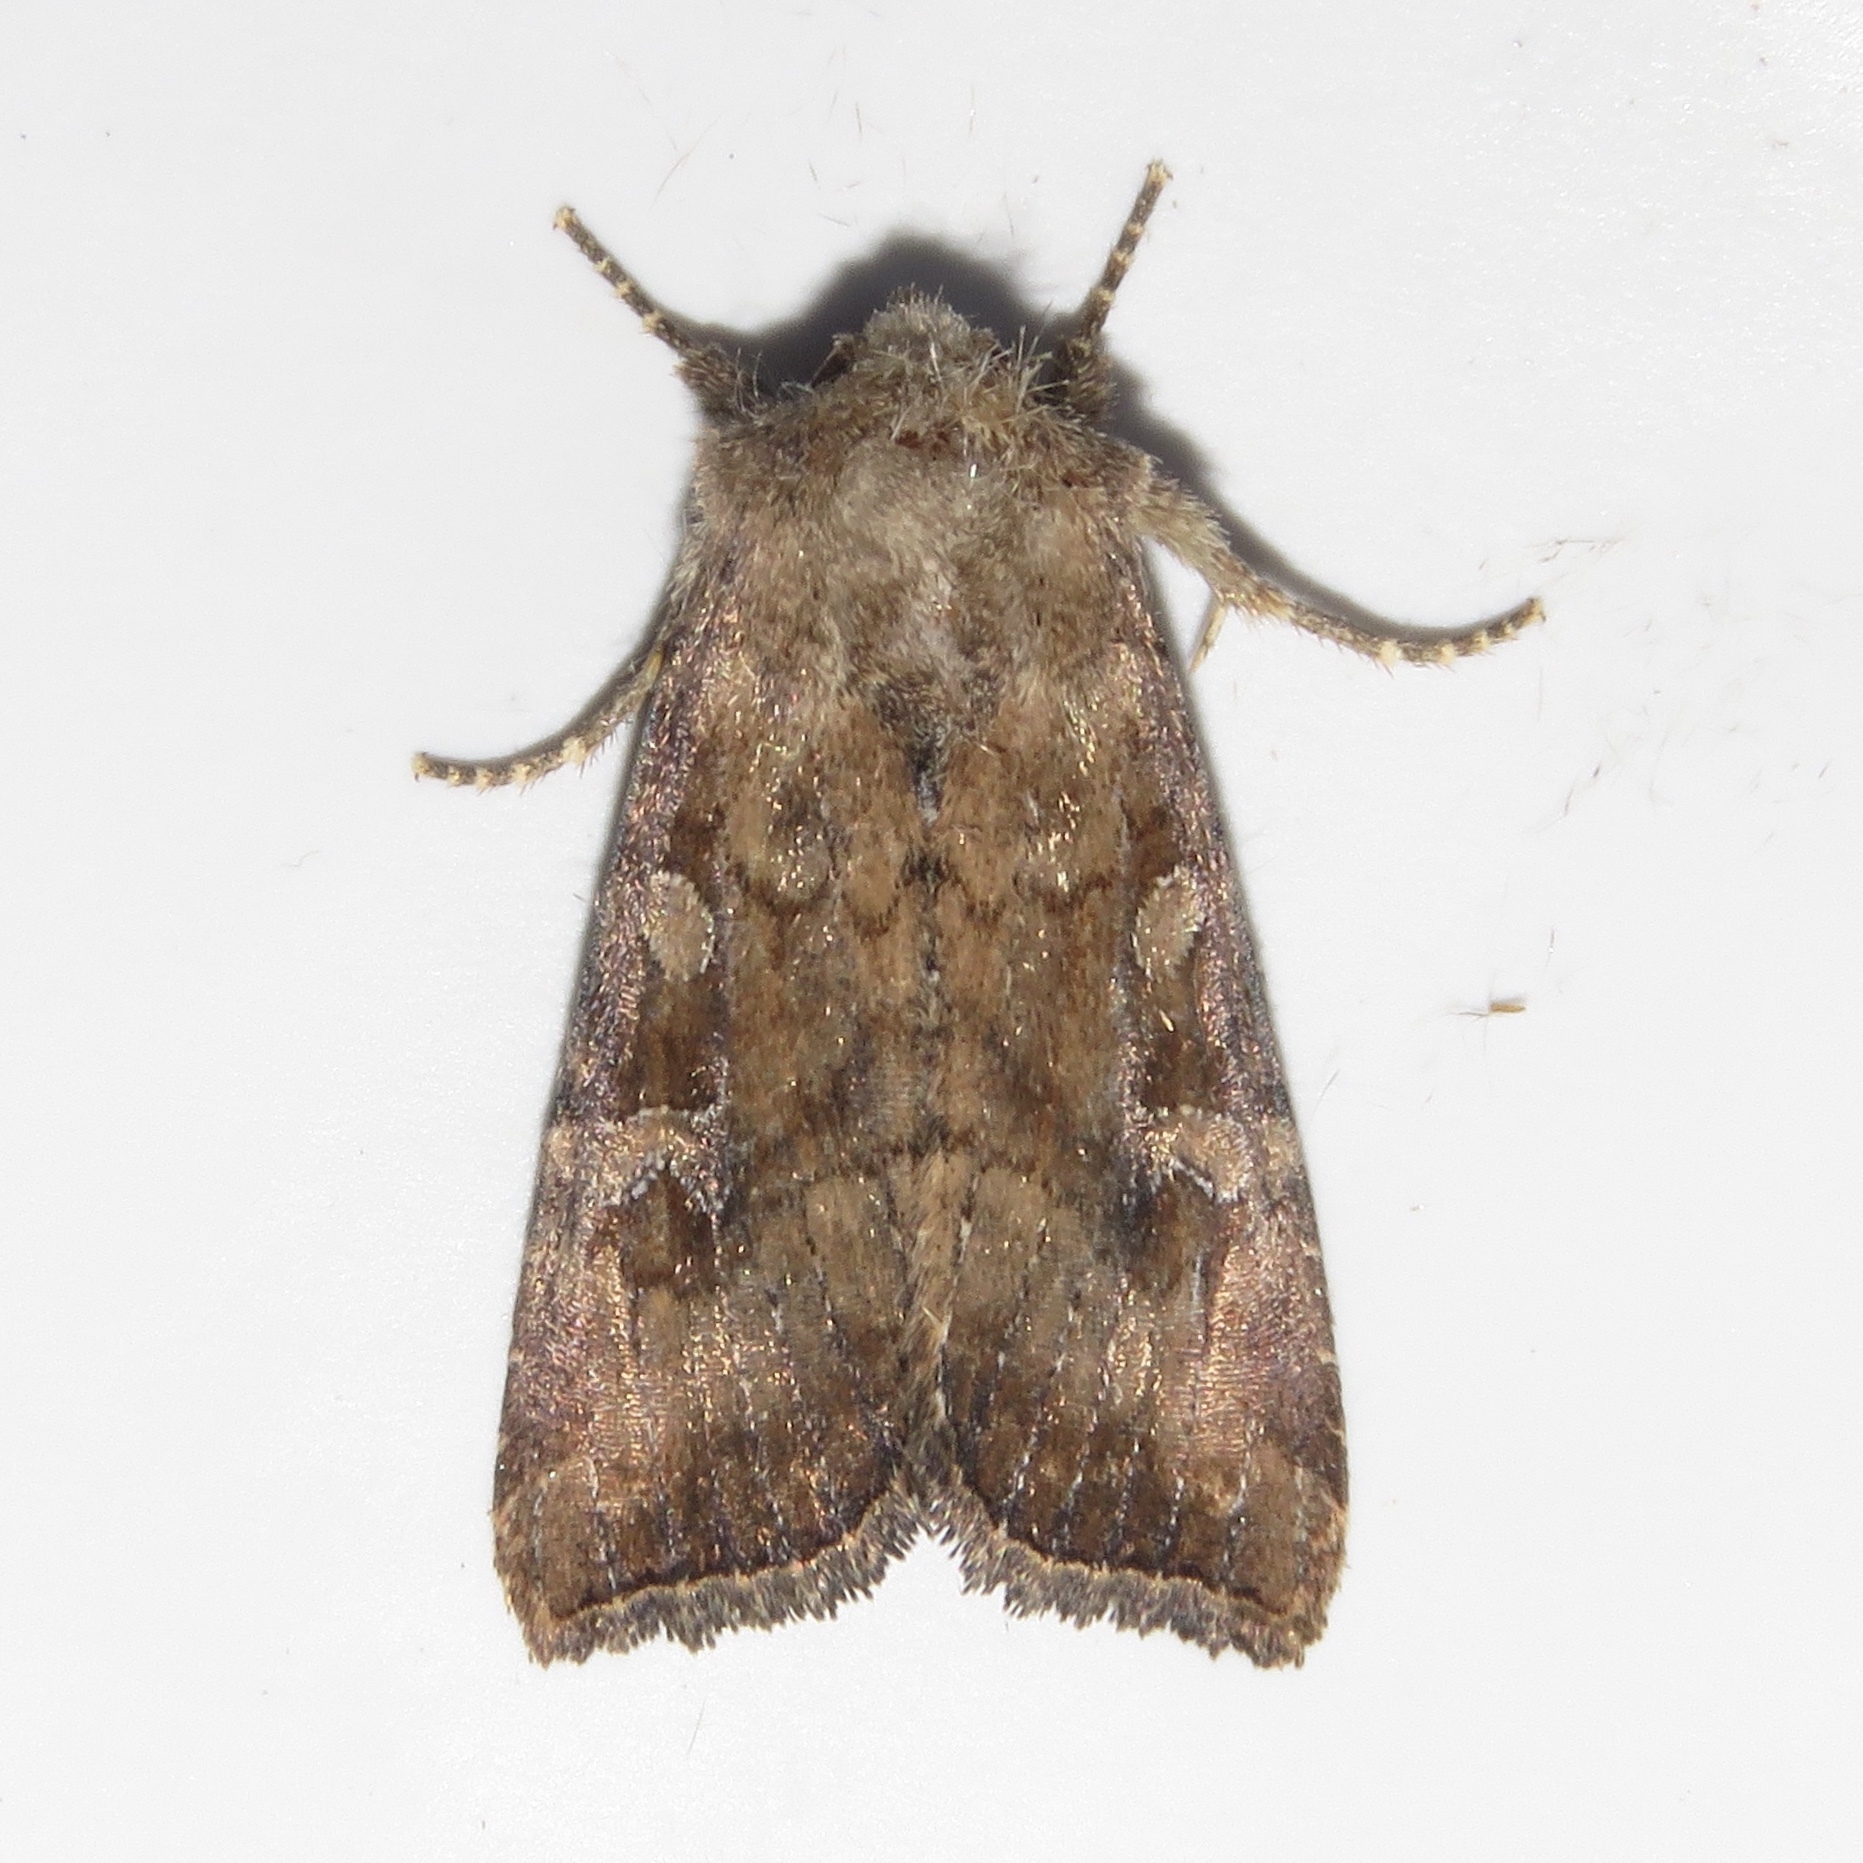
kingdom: Animalia
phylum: Arthropoda
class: Insecta
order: Lepidoptera
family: Noctuidae
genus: Loscopia
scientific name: Loscopia velata
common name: Veiled ear moth
